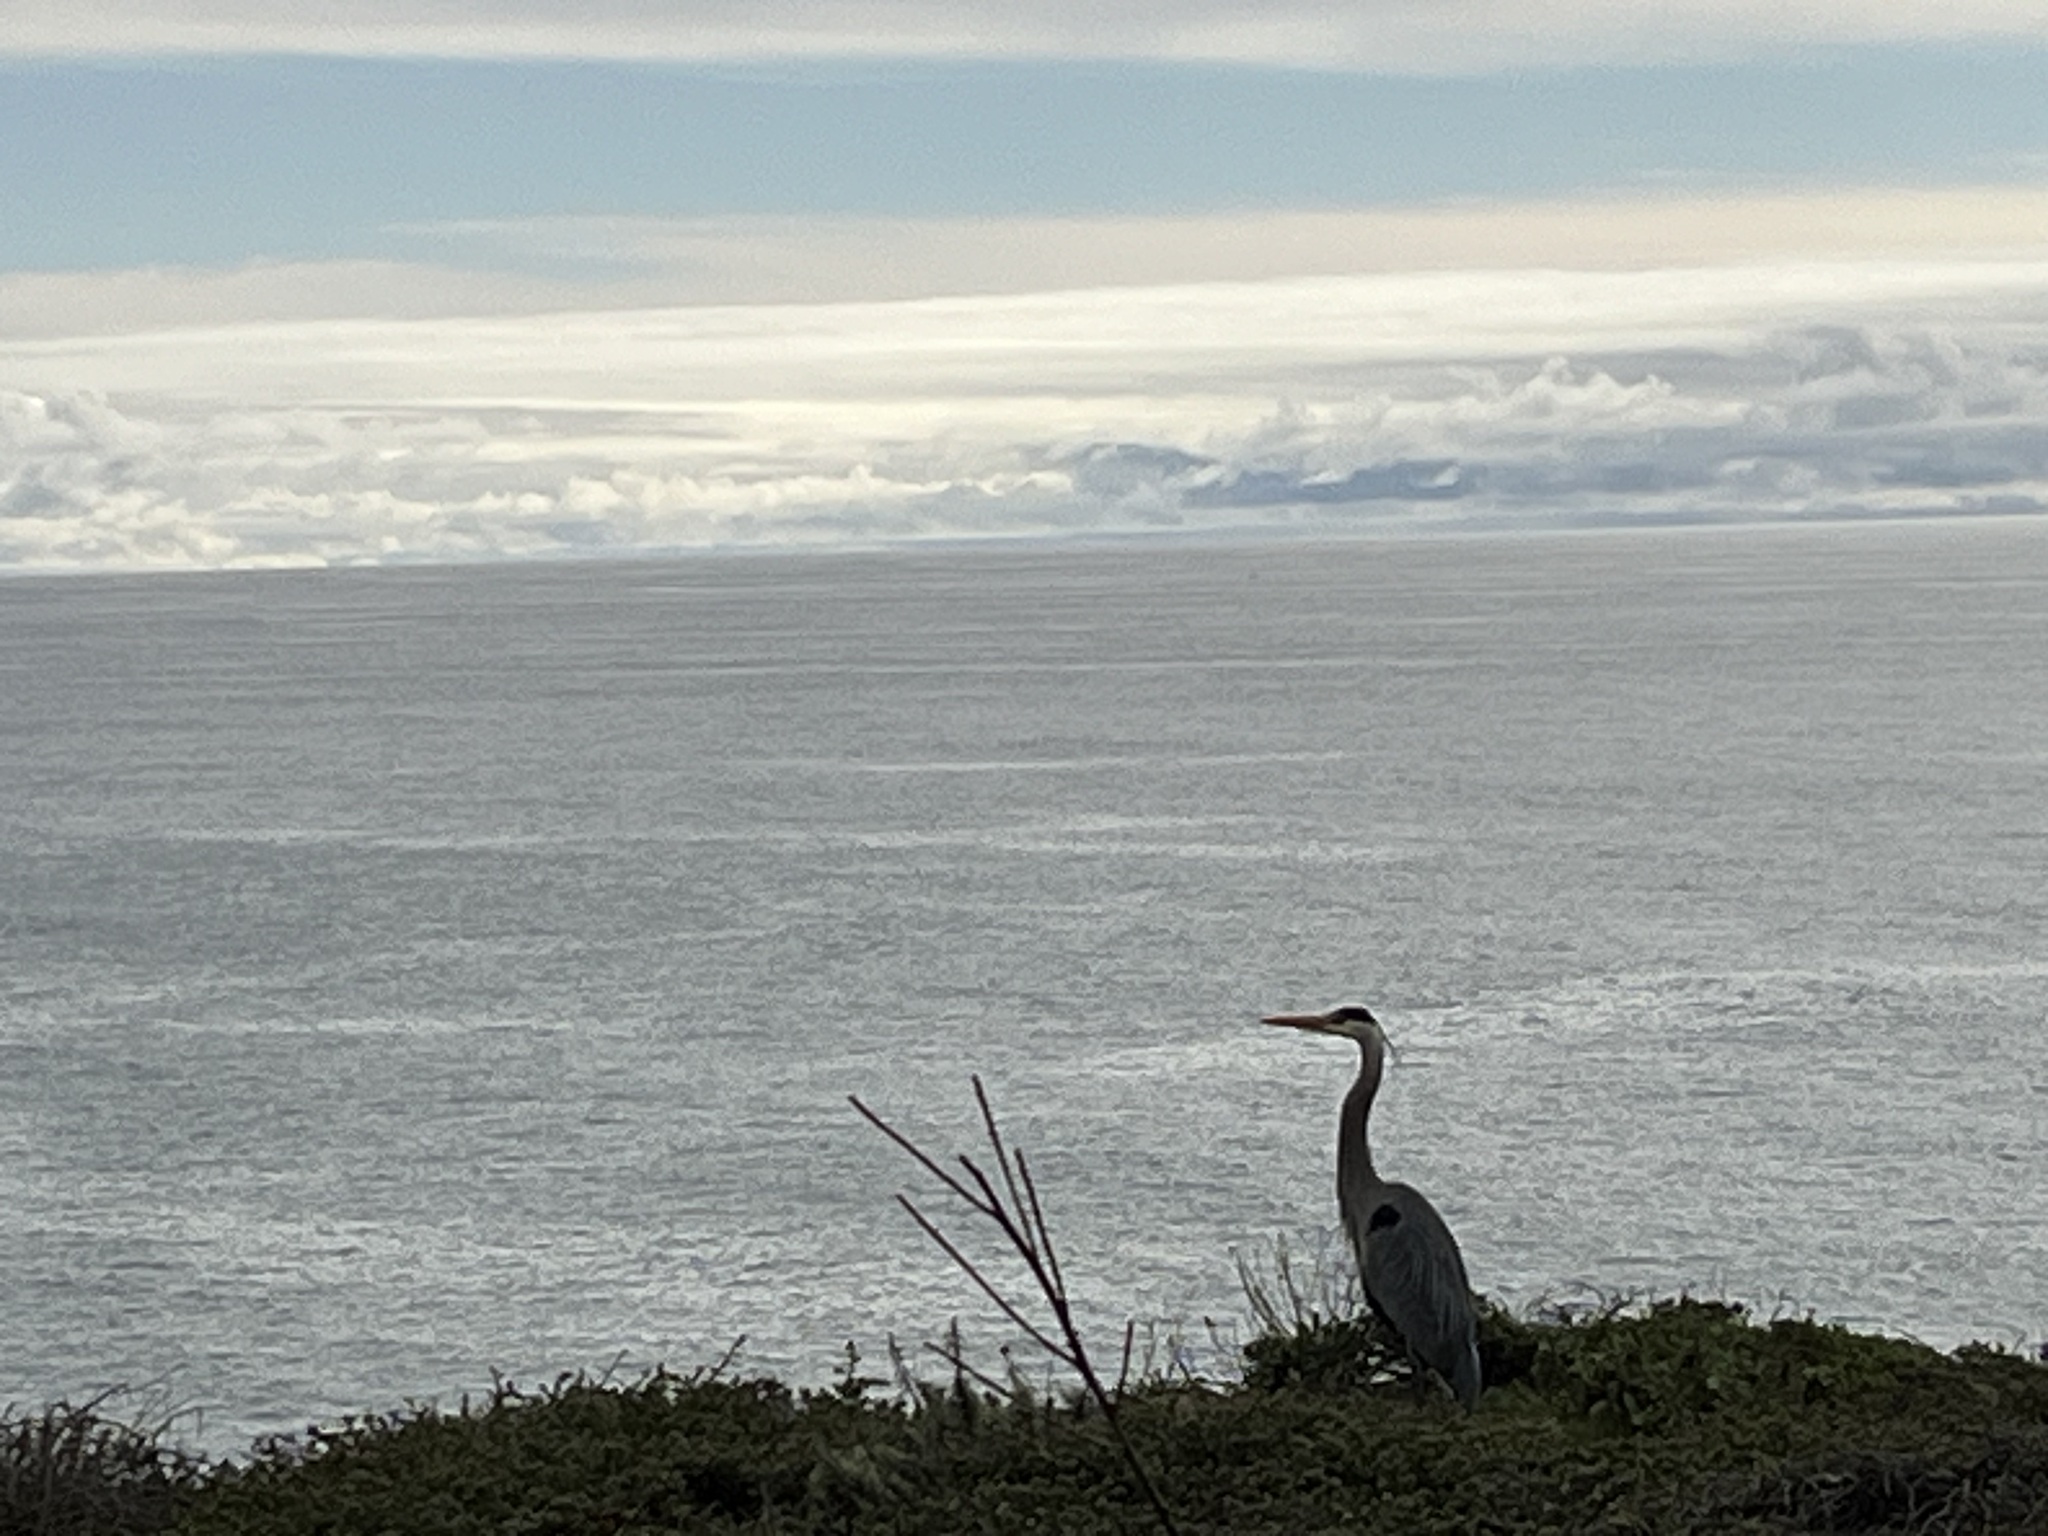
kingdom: Animalia
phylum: Chordata
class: Aves
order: Pelecaniformes
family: Ardeidae
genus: Ardea
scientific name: Ardea herodias
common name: Great blue heron
